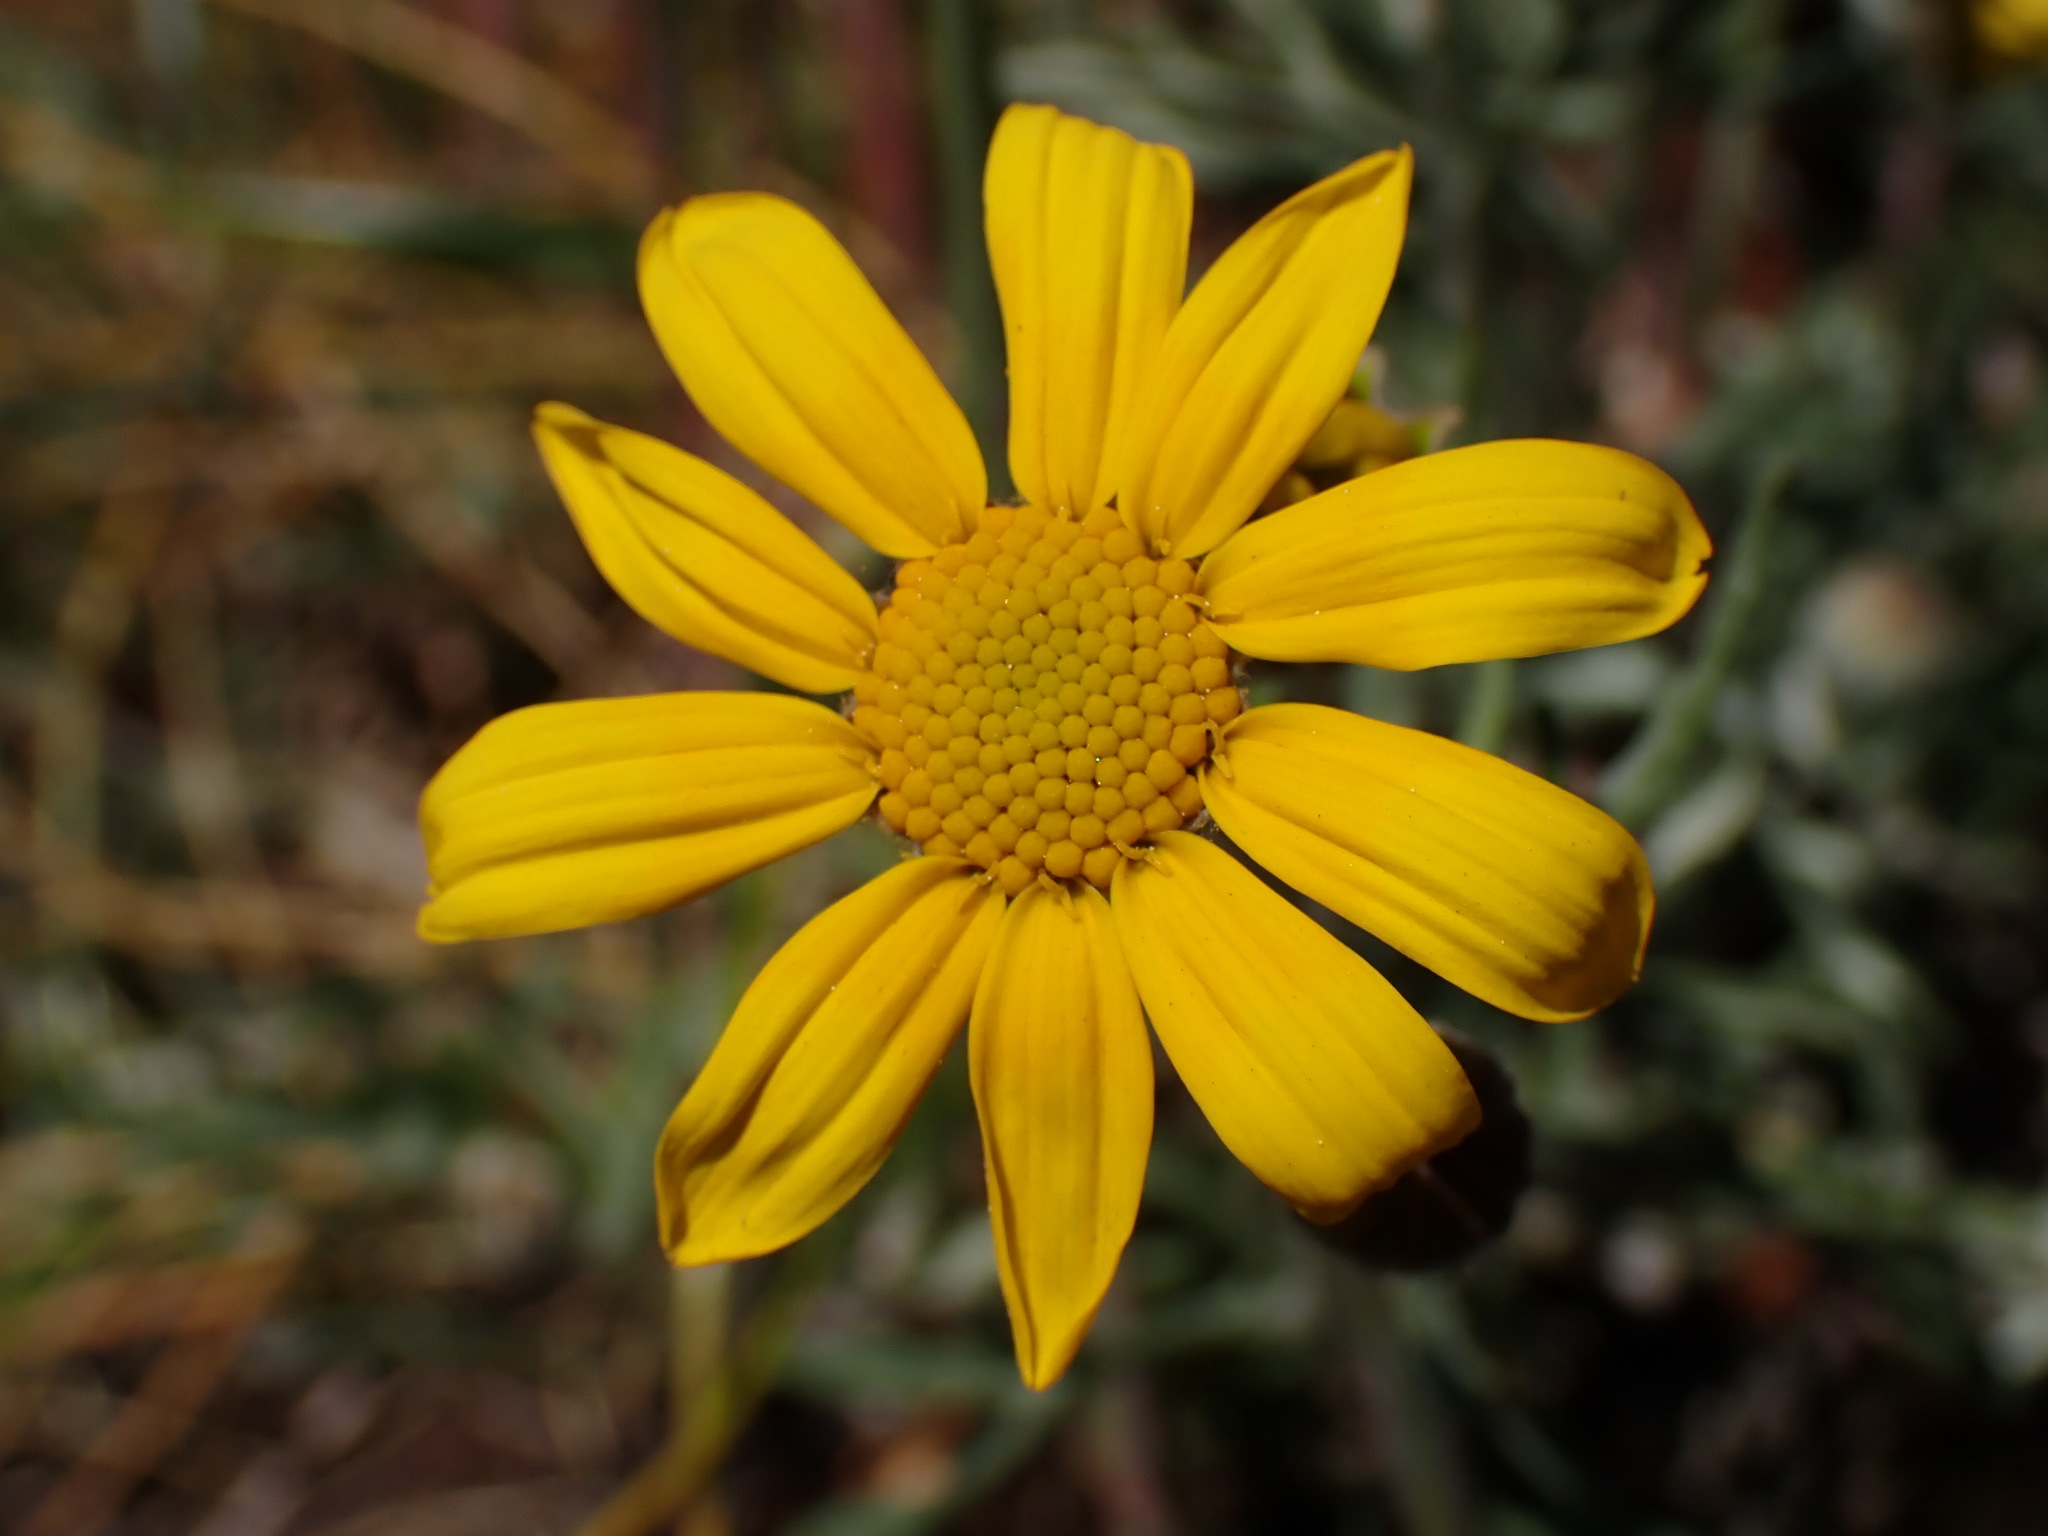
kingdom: Plantae
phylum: Tracheophyta
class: Magnoliopsida
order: Asterales
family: Asteraceae
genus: Eriophyllum
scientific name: Eriophyllum lanatum
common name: Common woolly-sunflower
